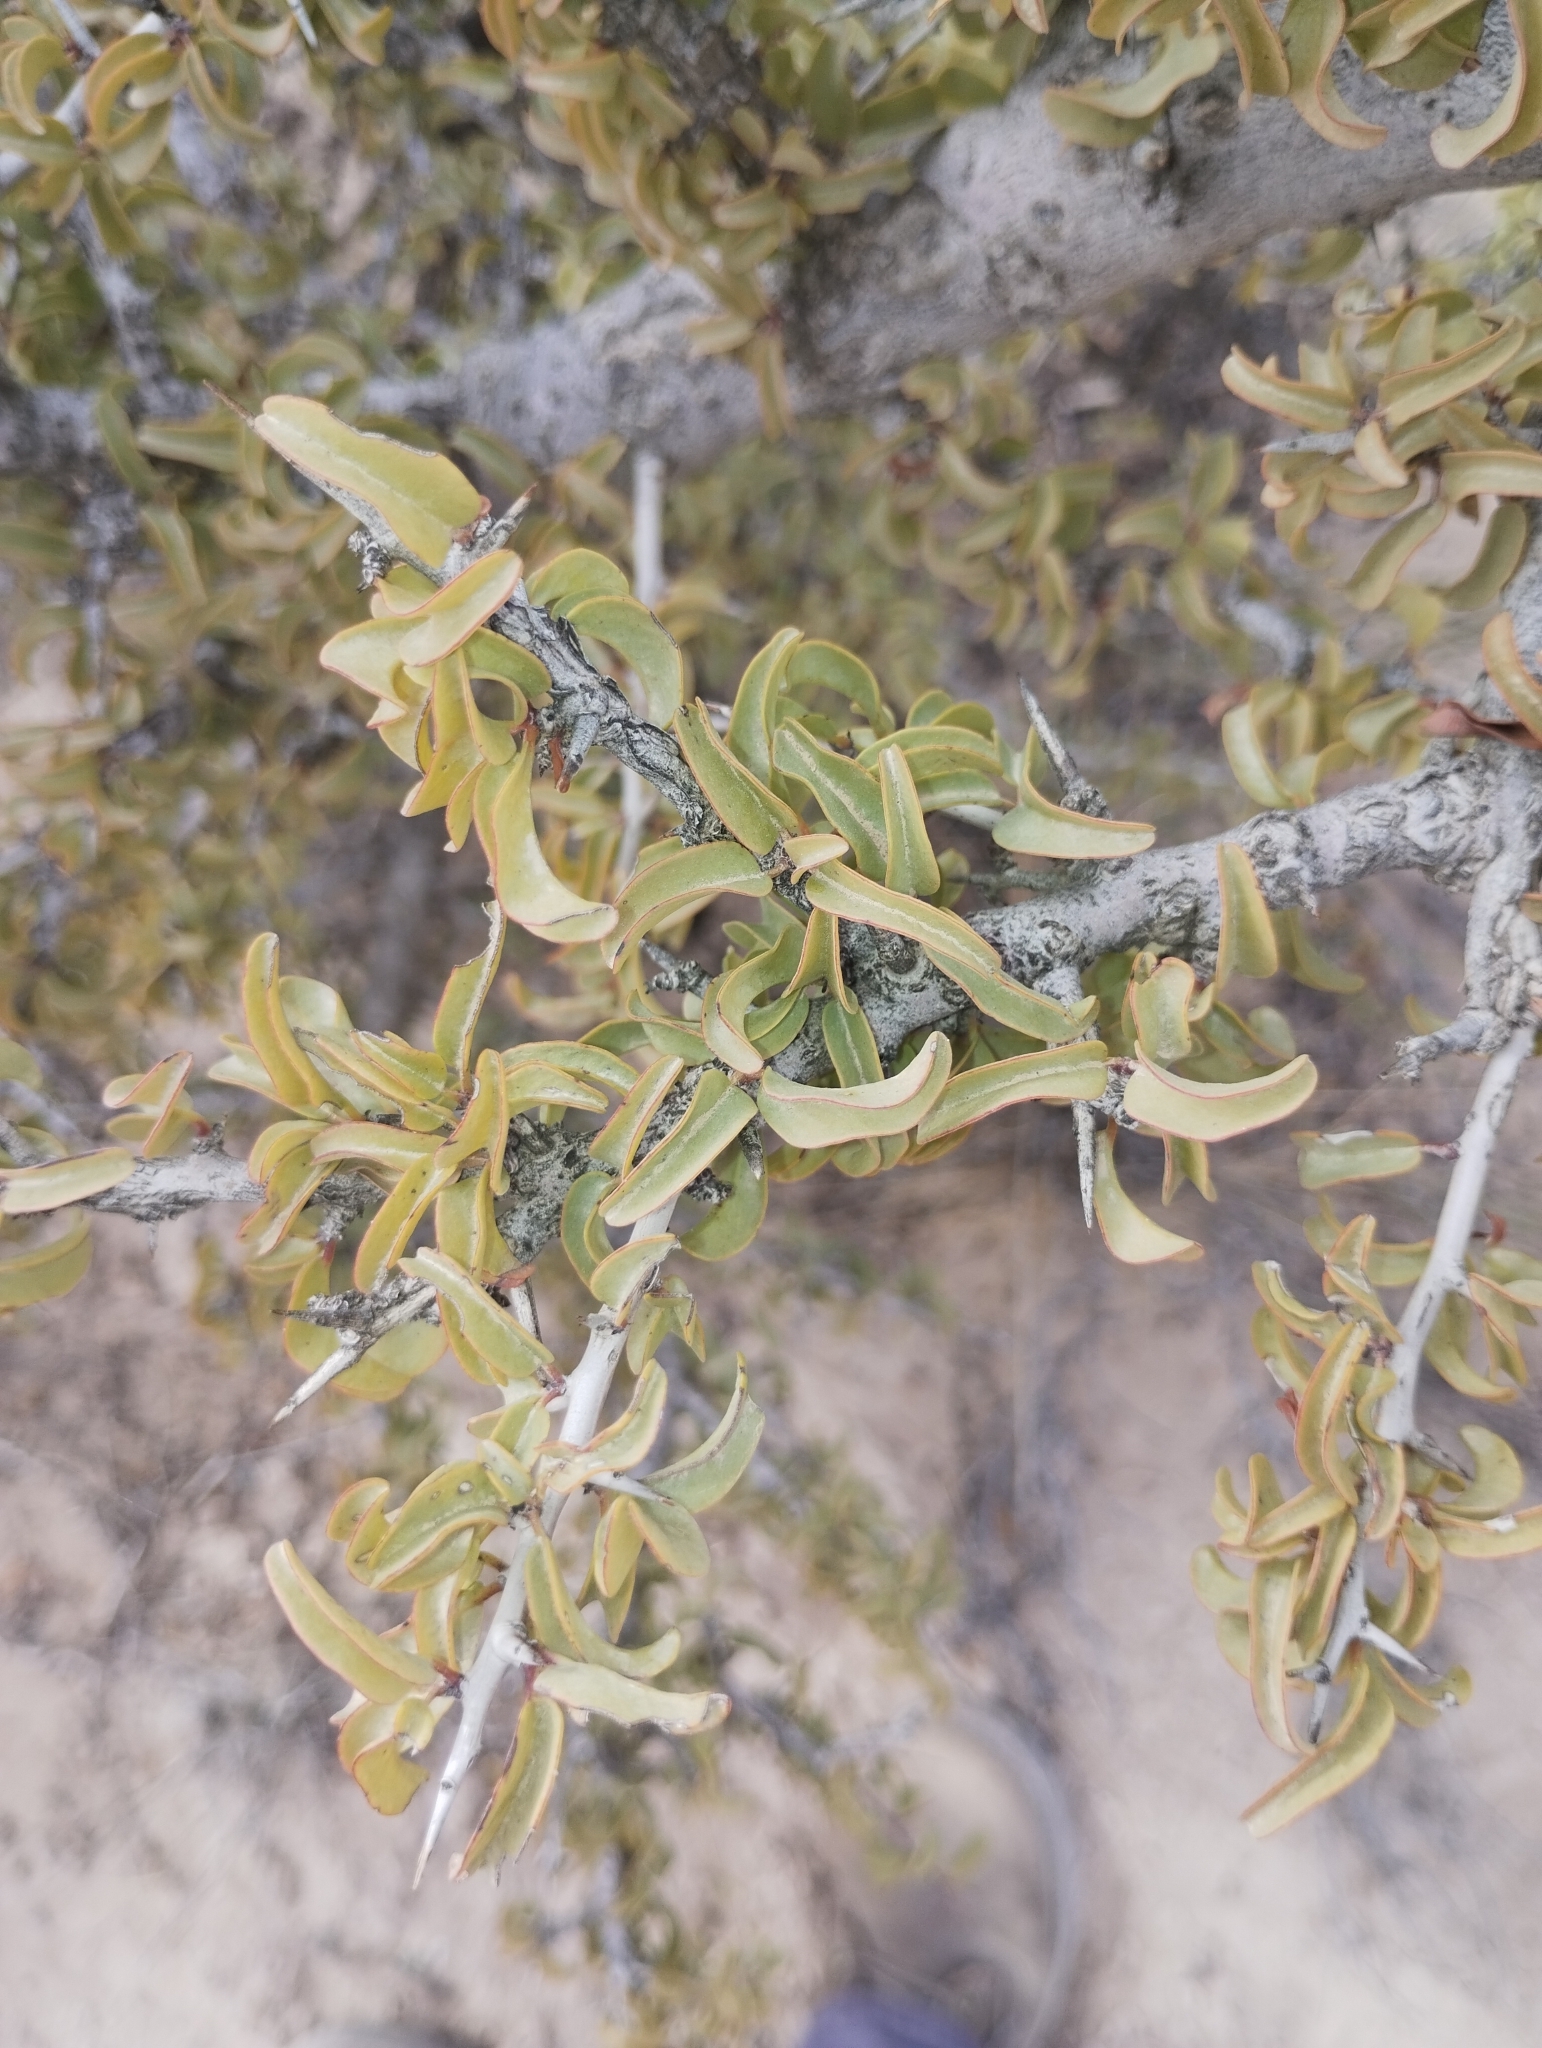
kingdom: Plantae
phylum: Tracheophyta
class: Magnoliopsida
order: Santalales
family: Ximeniaceae
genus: Ximenia
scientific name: Ximenia americana
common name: Tallowwood
